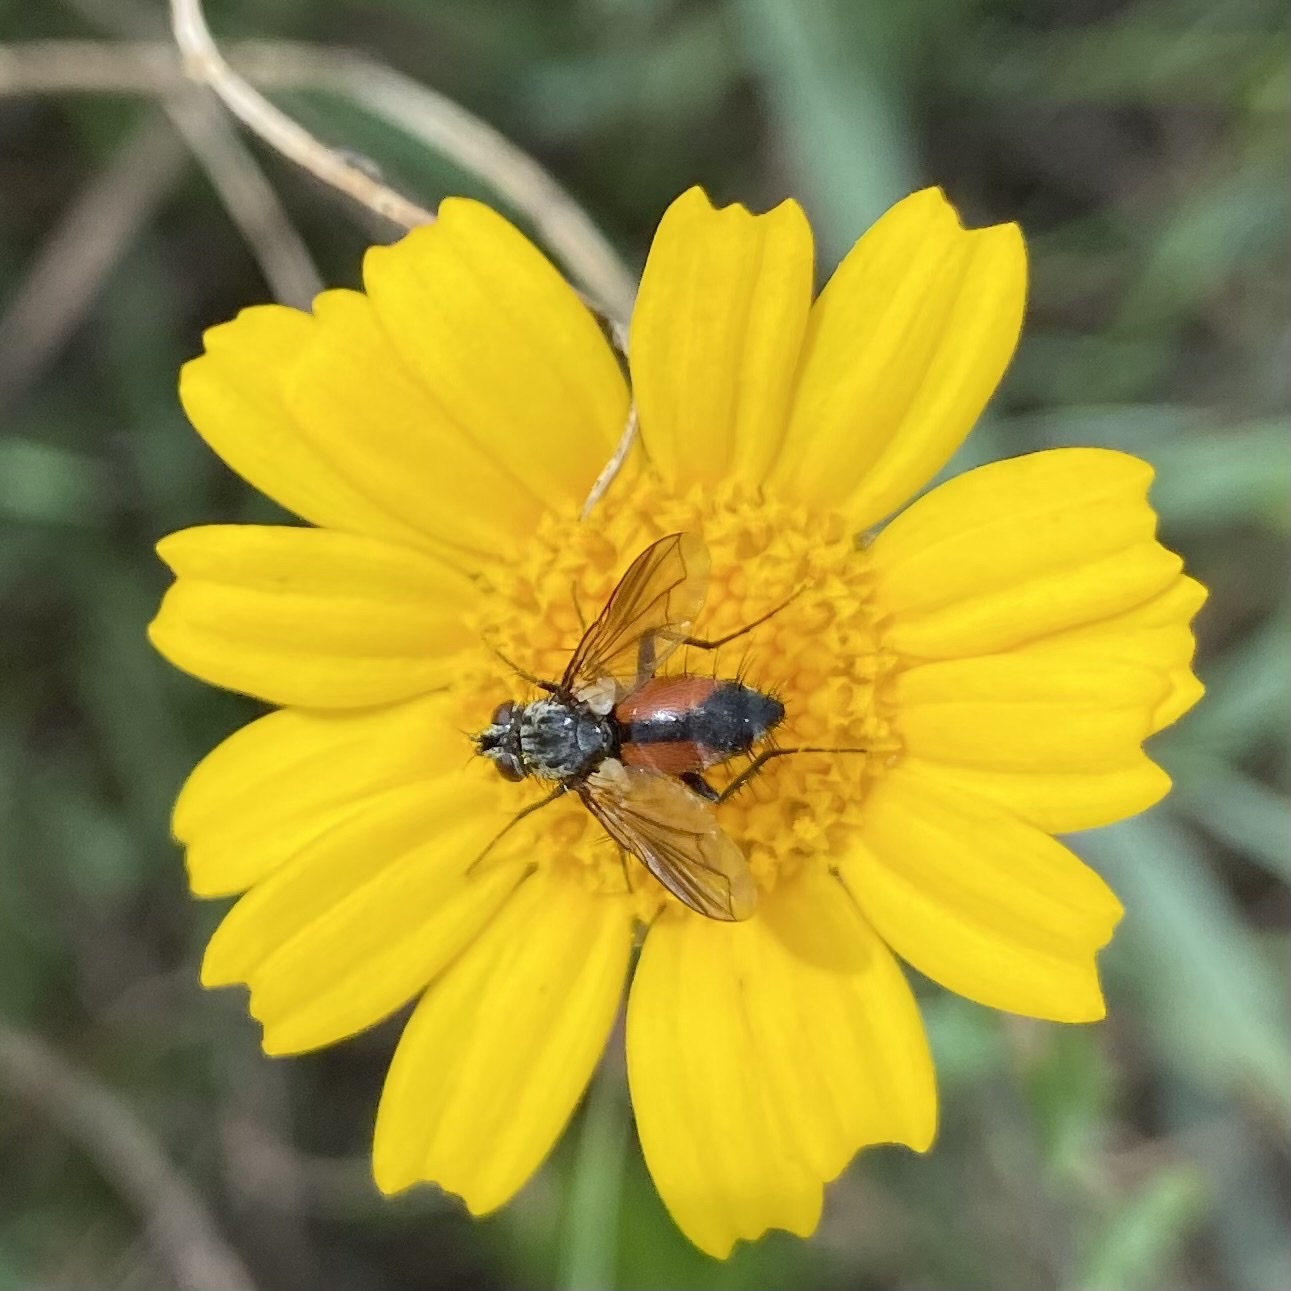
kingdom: Animalia
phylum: Arthropoda
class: Insecta
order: Diptera
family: Tachinidae
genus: Eriothrix
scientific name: Eriothrix rufomaculatus
